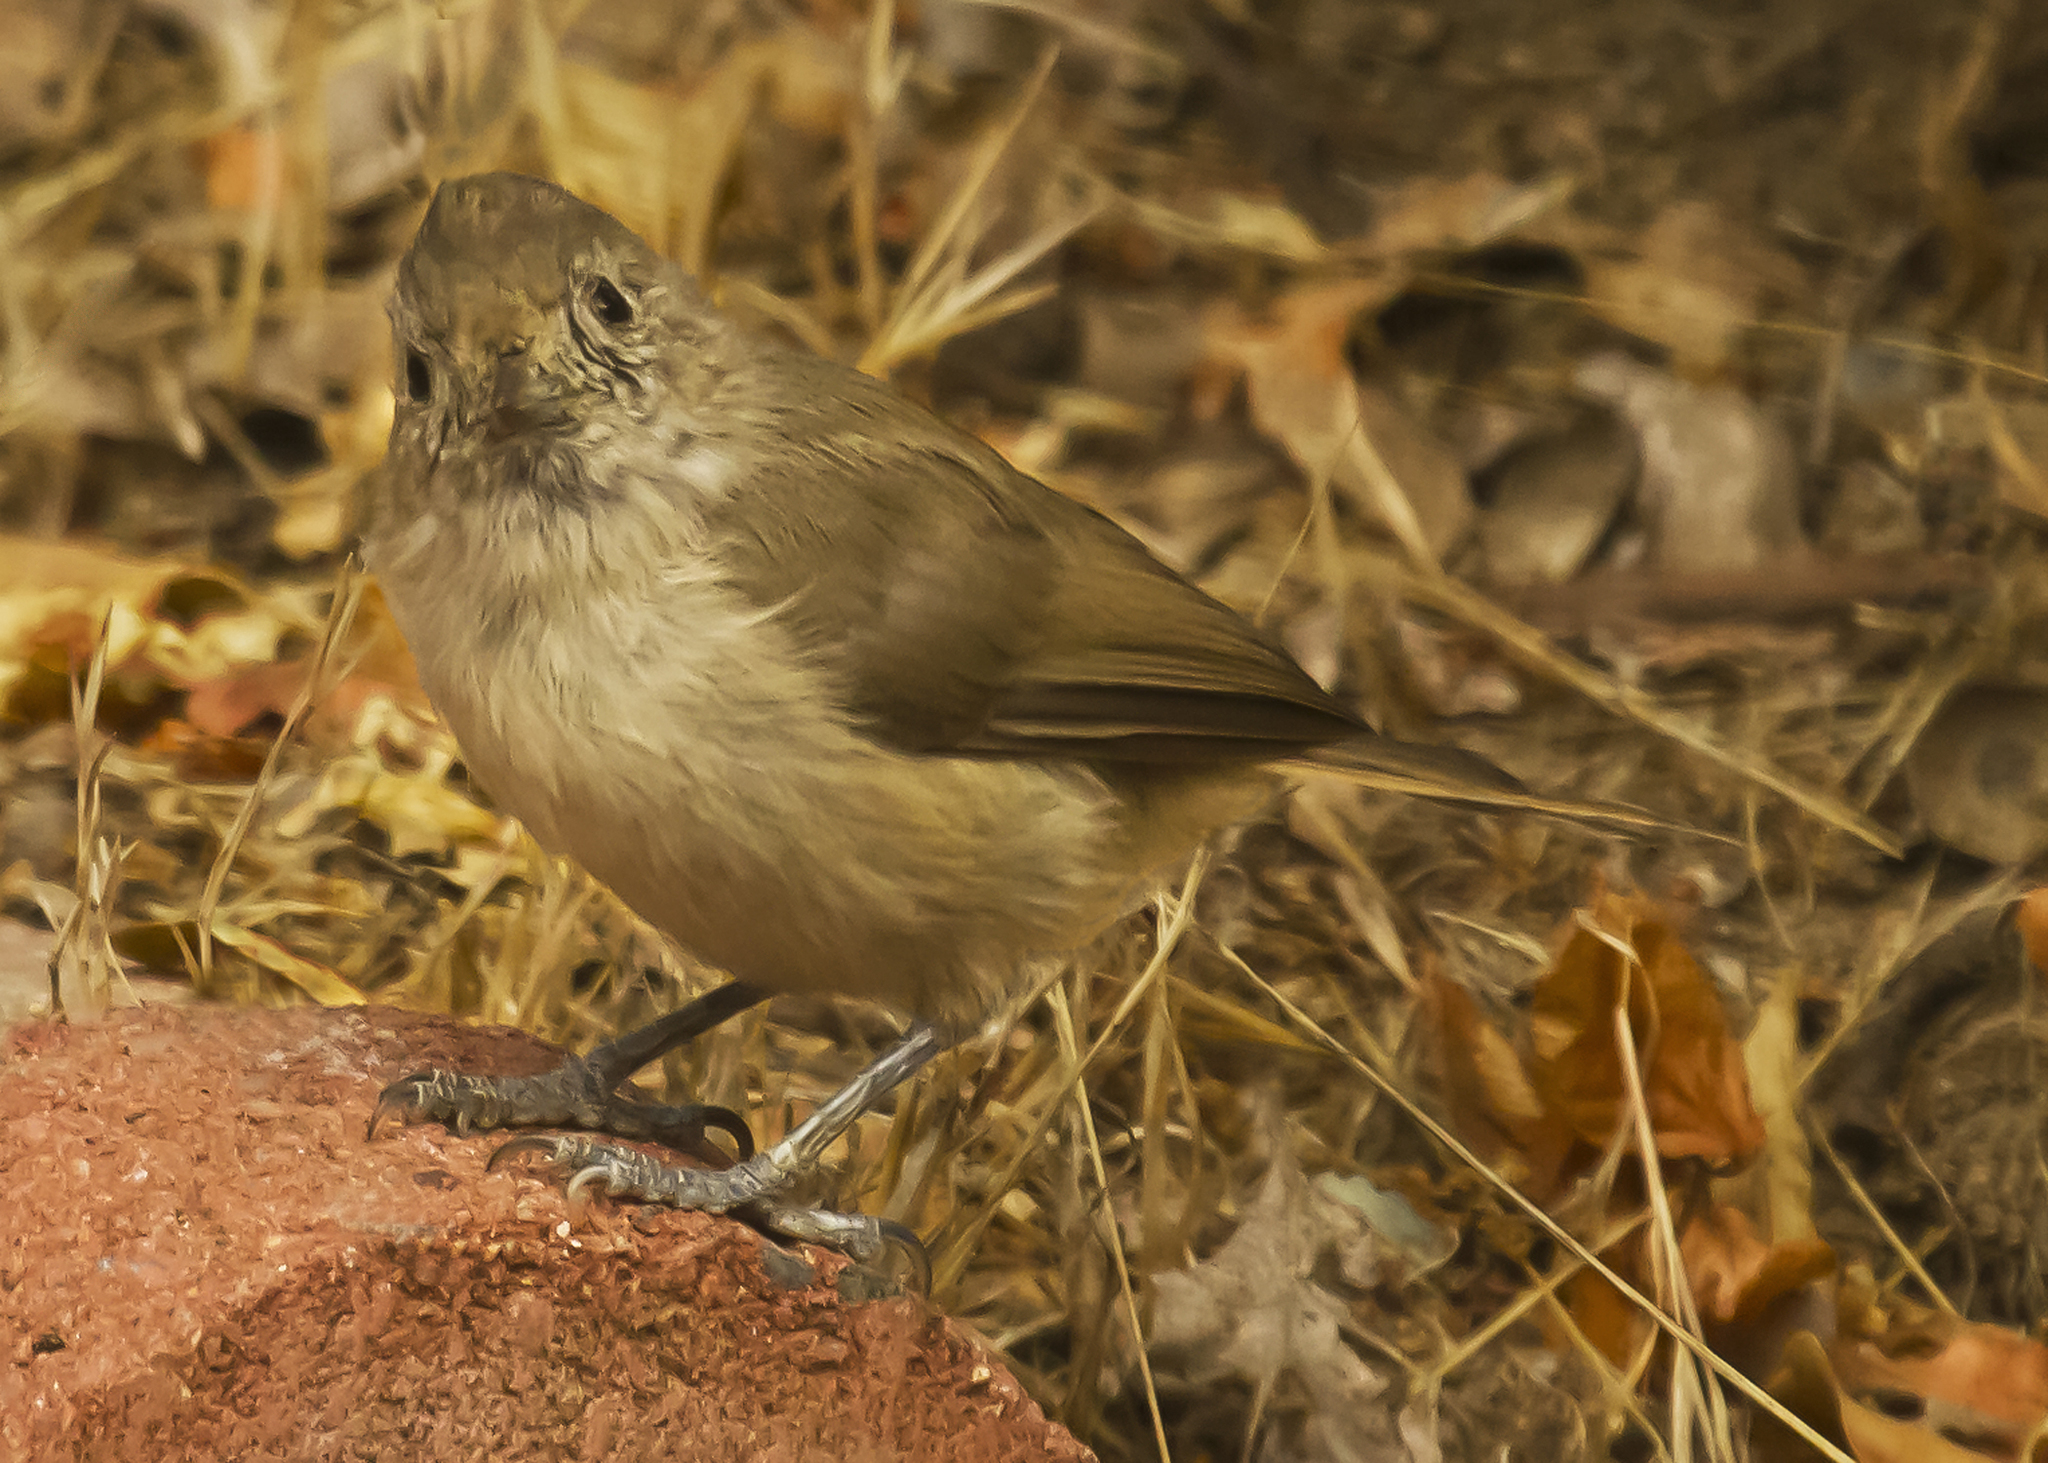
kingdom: Animalia
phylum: Chordata
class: Aves
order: Passeriformes
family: Paridae
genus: Baeolophus
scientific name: Baeolophus inornatus
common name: Oak titmouse
